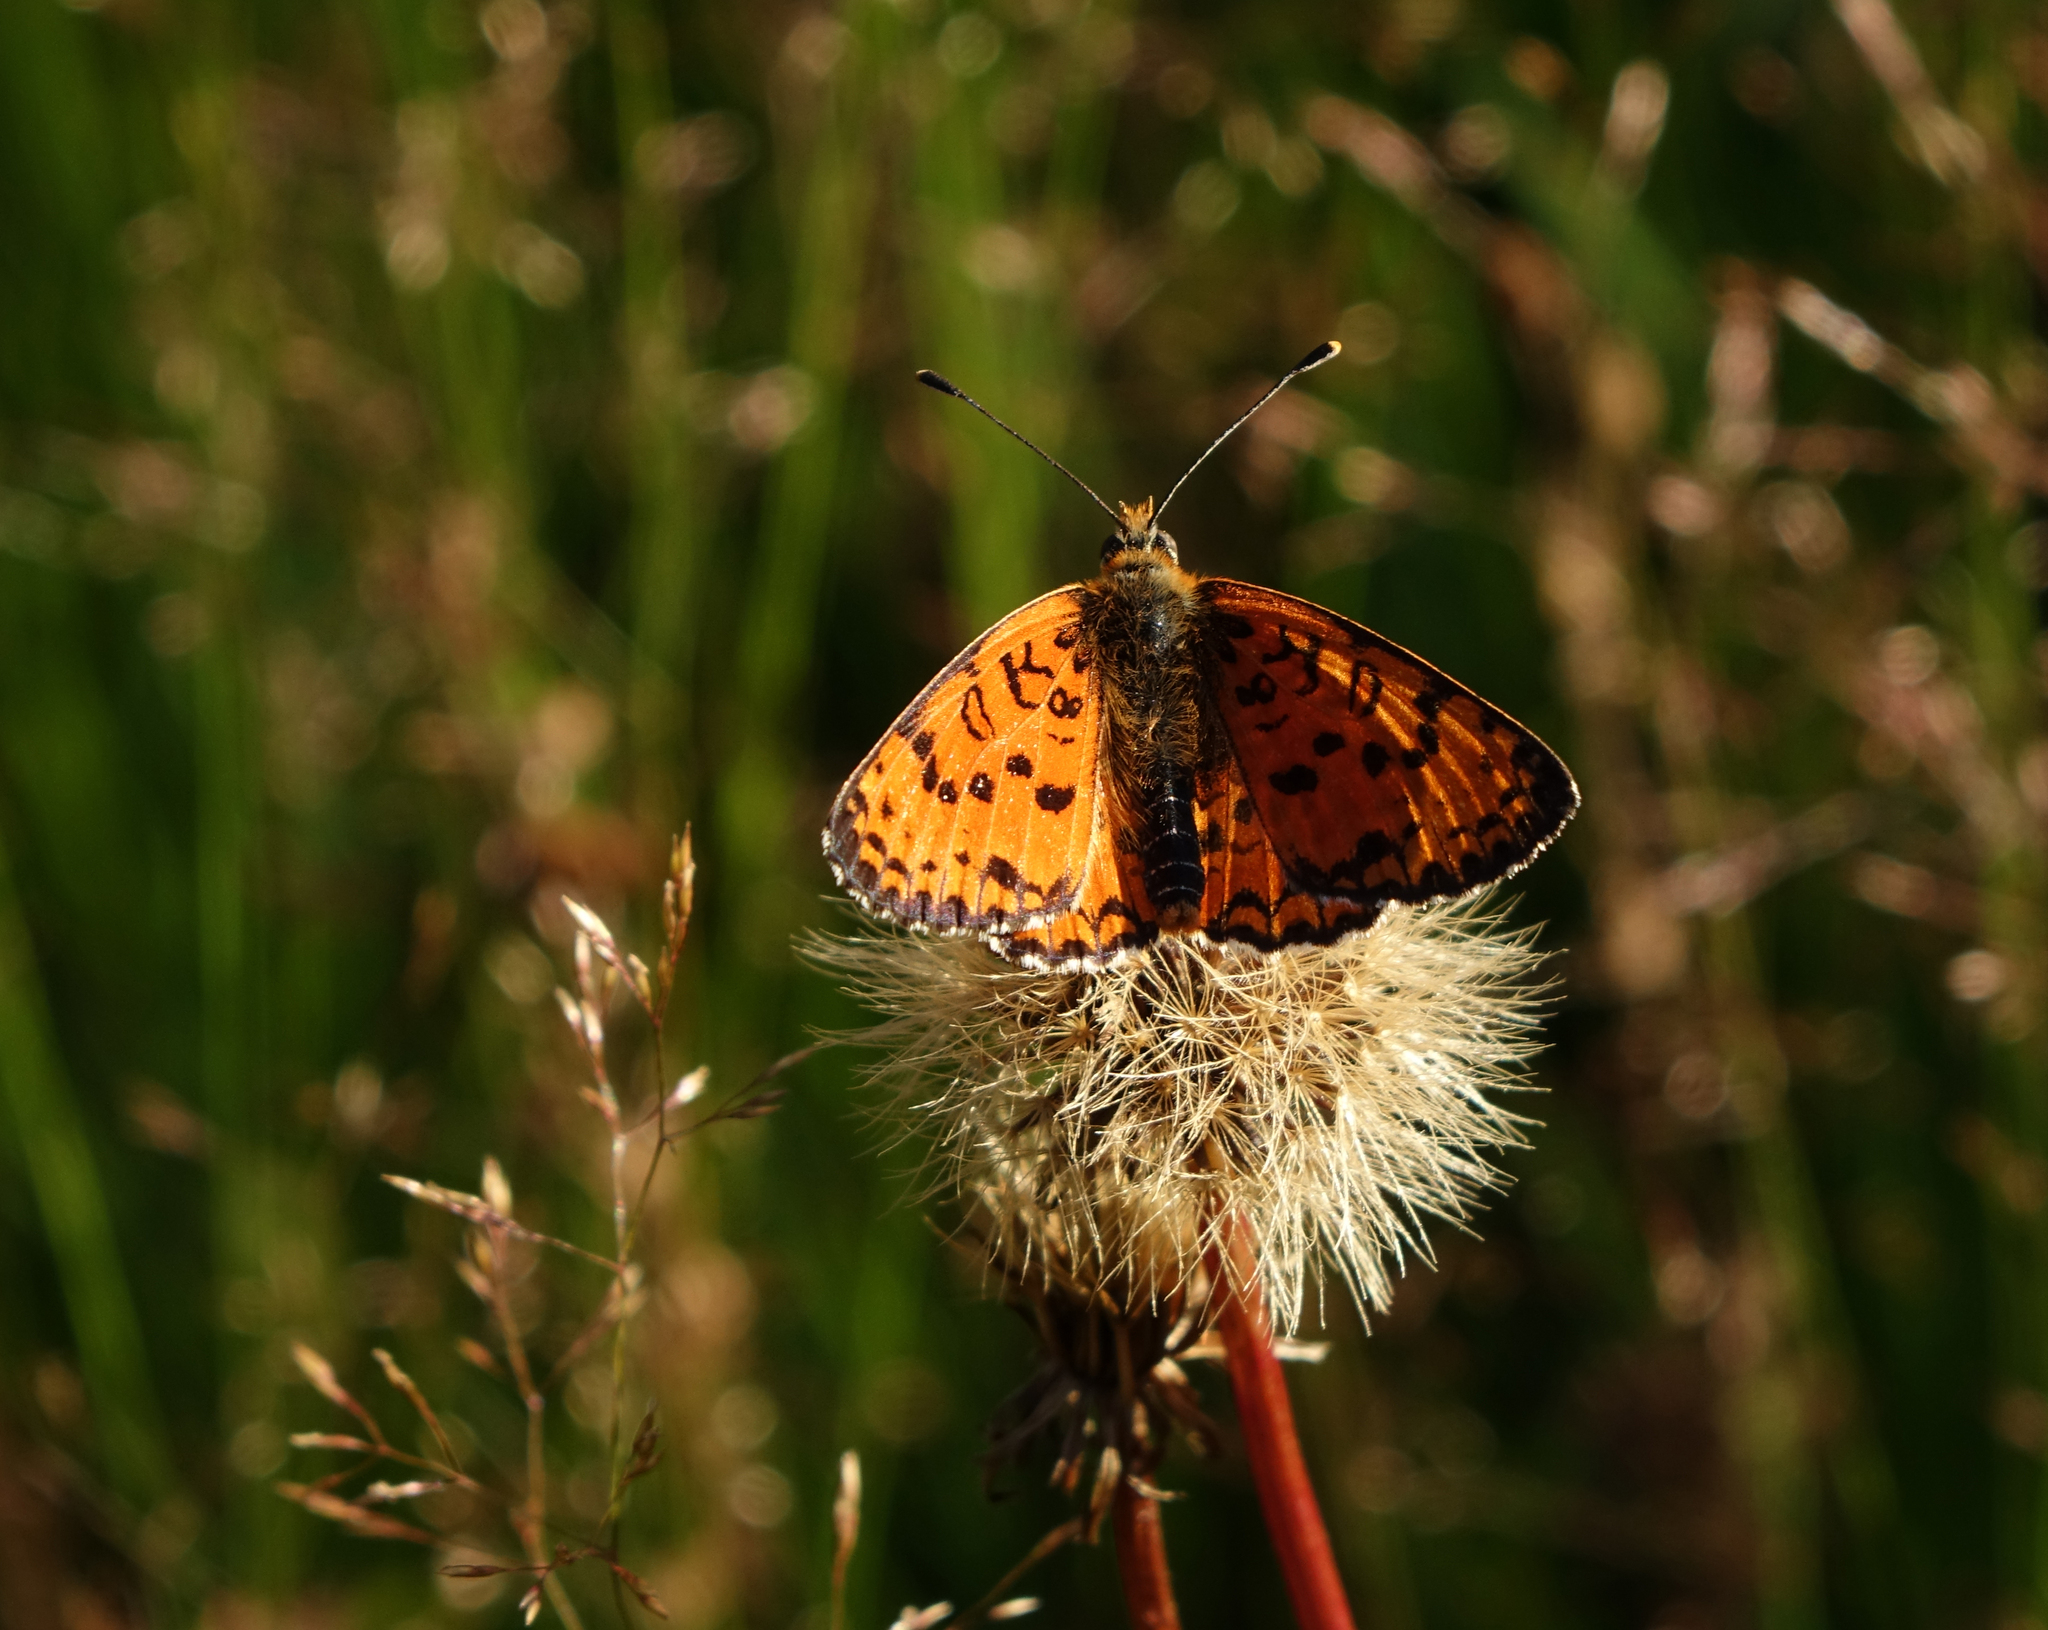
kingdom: Animalia
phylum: Arthropoda
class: Insecta
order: Lepidoptera
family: Nymphalidae
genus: Melitaea
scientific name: Melitaea cinxia
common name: Glanville fritillary
